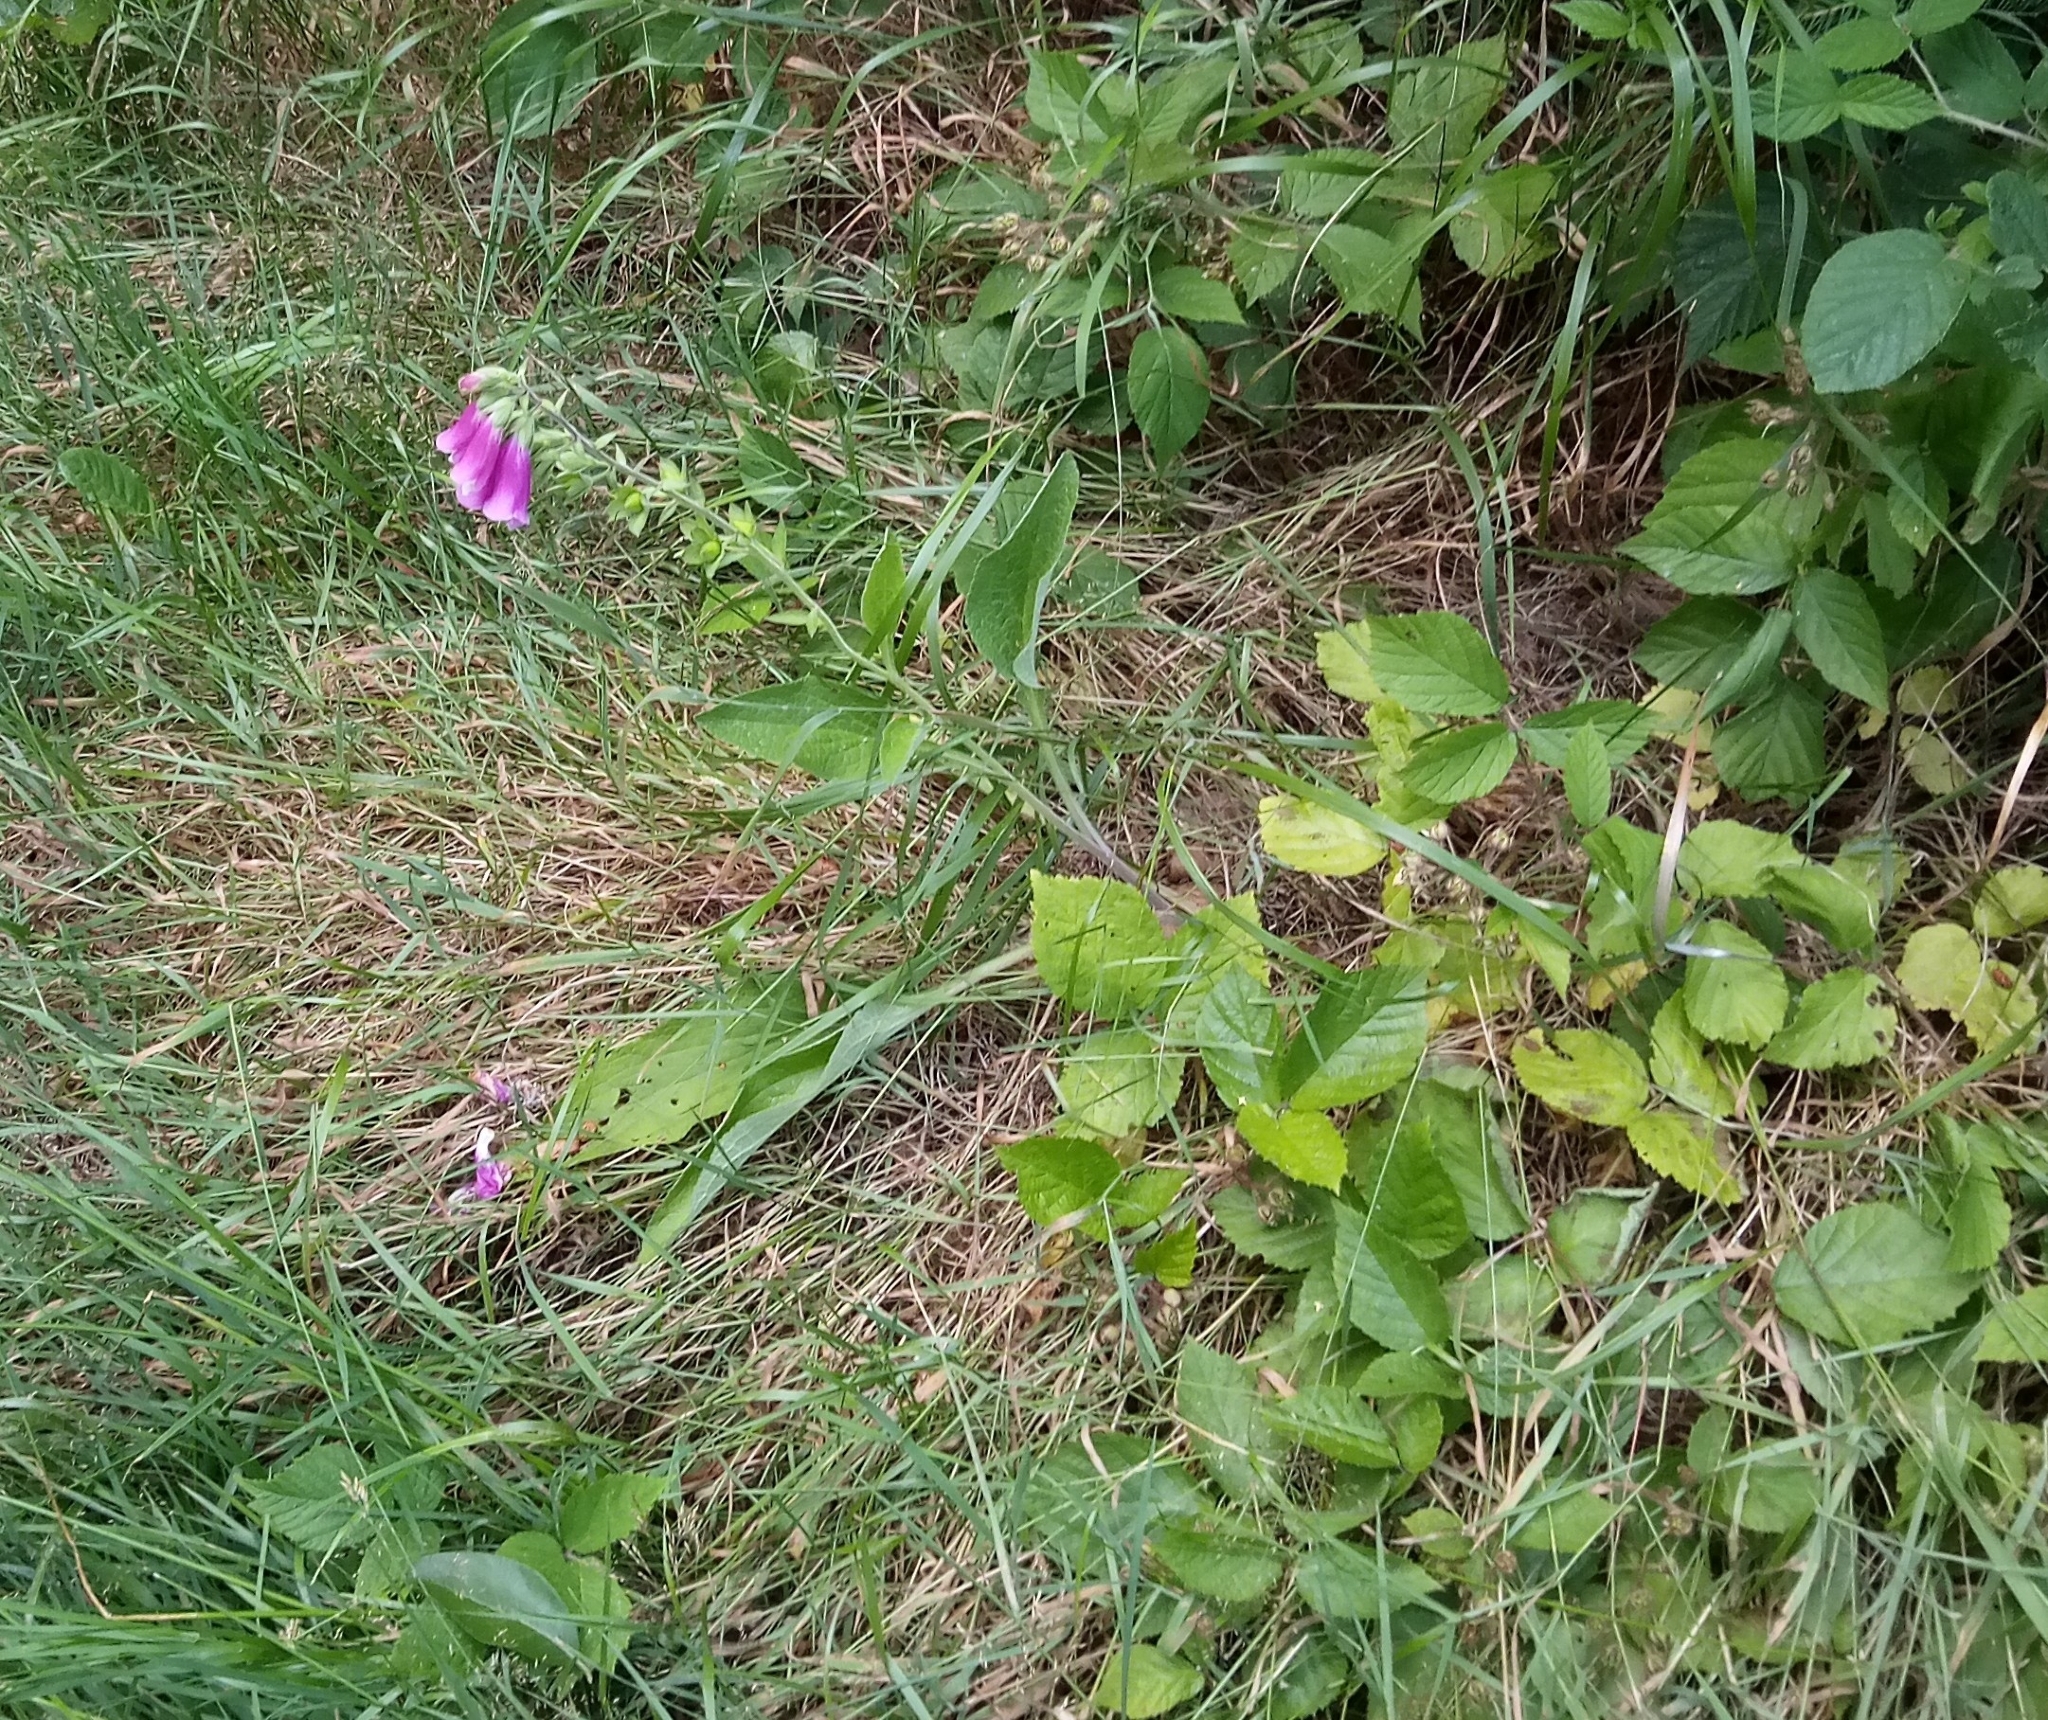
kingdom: Plantae
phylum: Tracheophyta
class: Magnoliopsida
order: Lamiales
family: Plantaginaceae
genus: Digitalis
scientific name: Digitalis purpurea
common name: Foxglove
